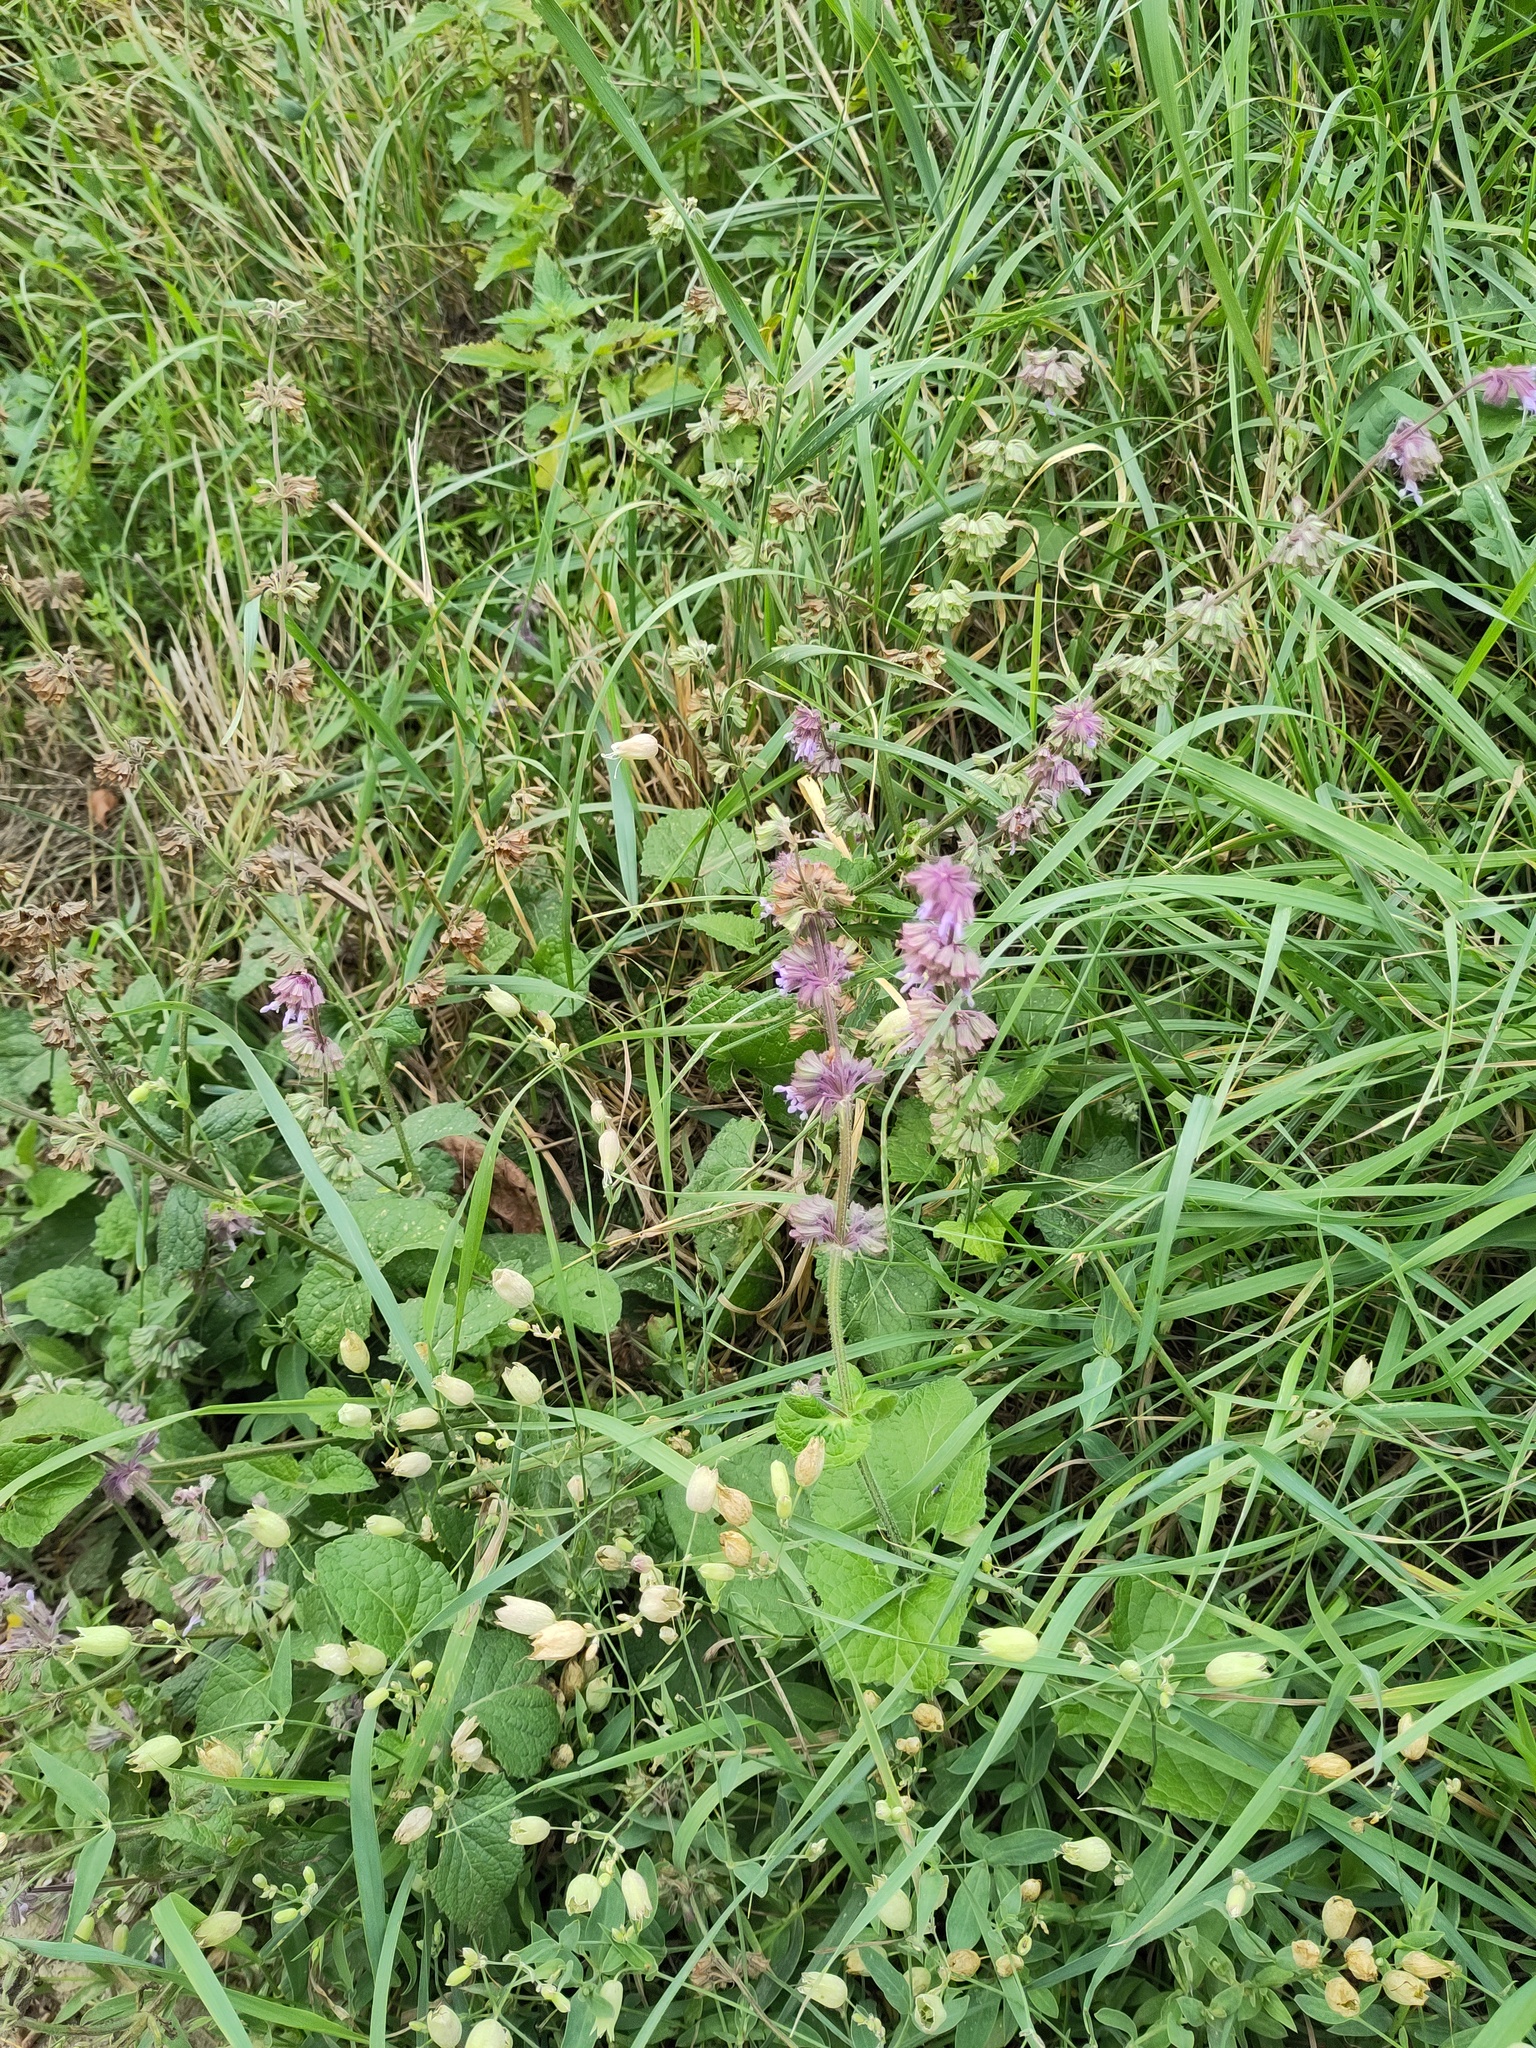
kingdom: Plantae
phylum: Tracheophyta
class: Magnoliopsida
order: Lamiales
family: Lamiaceae
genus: Salvia
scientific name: Salvia verticillata
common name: Whorled clary
